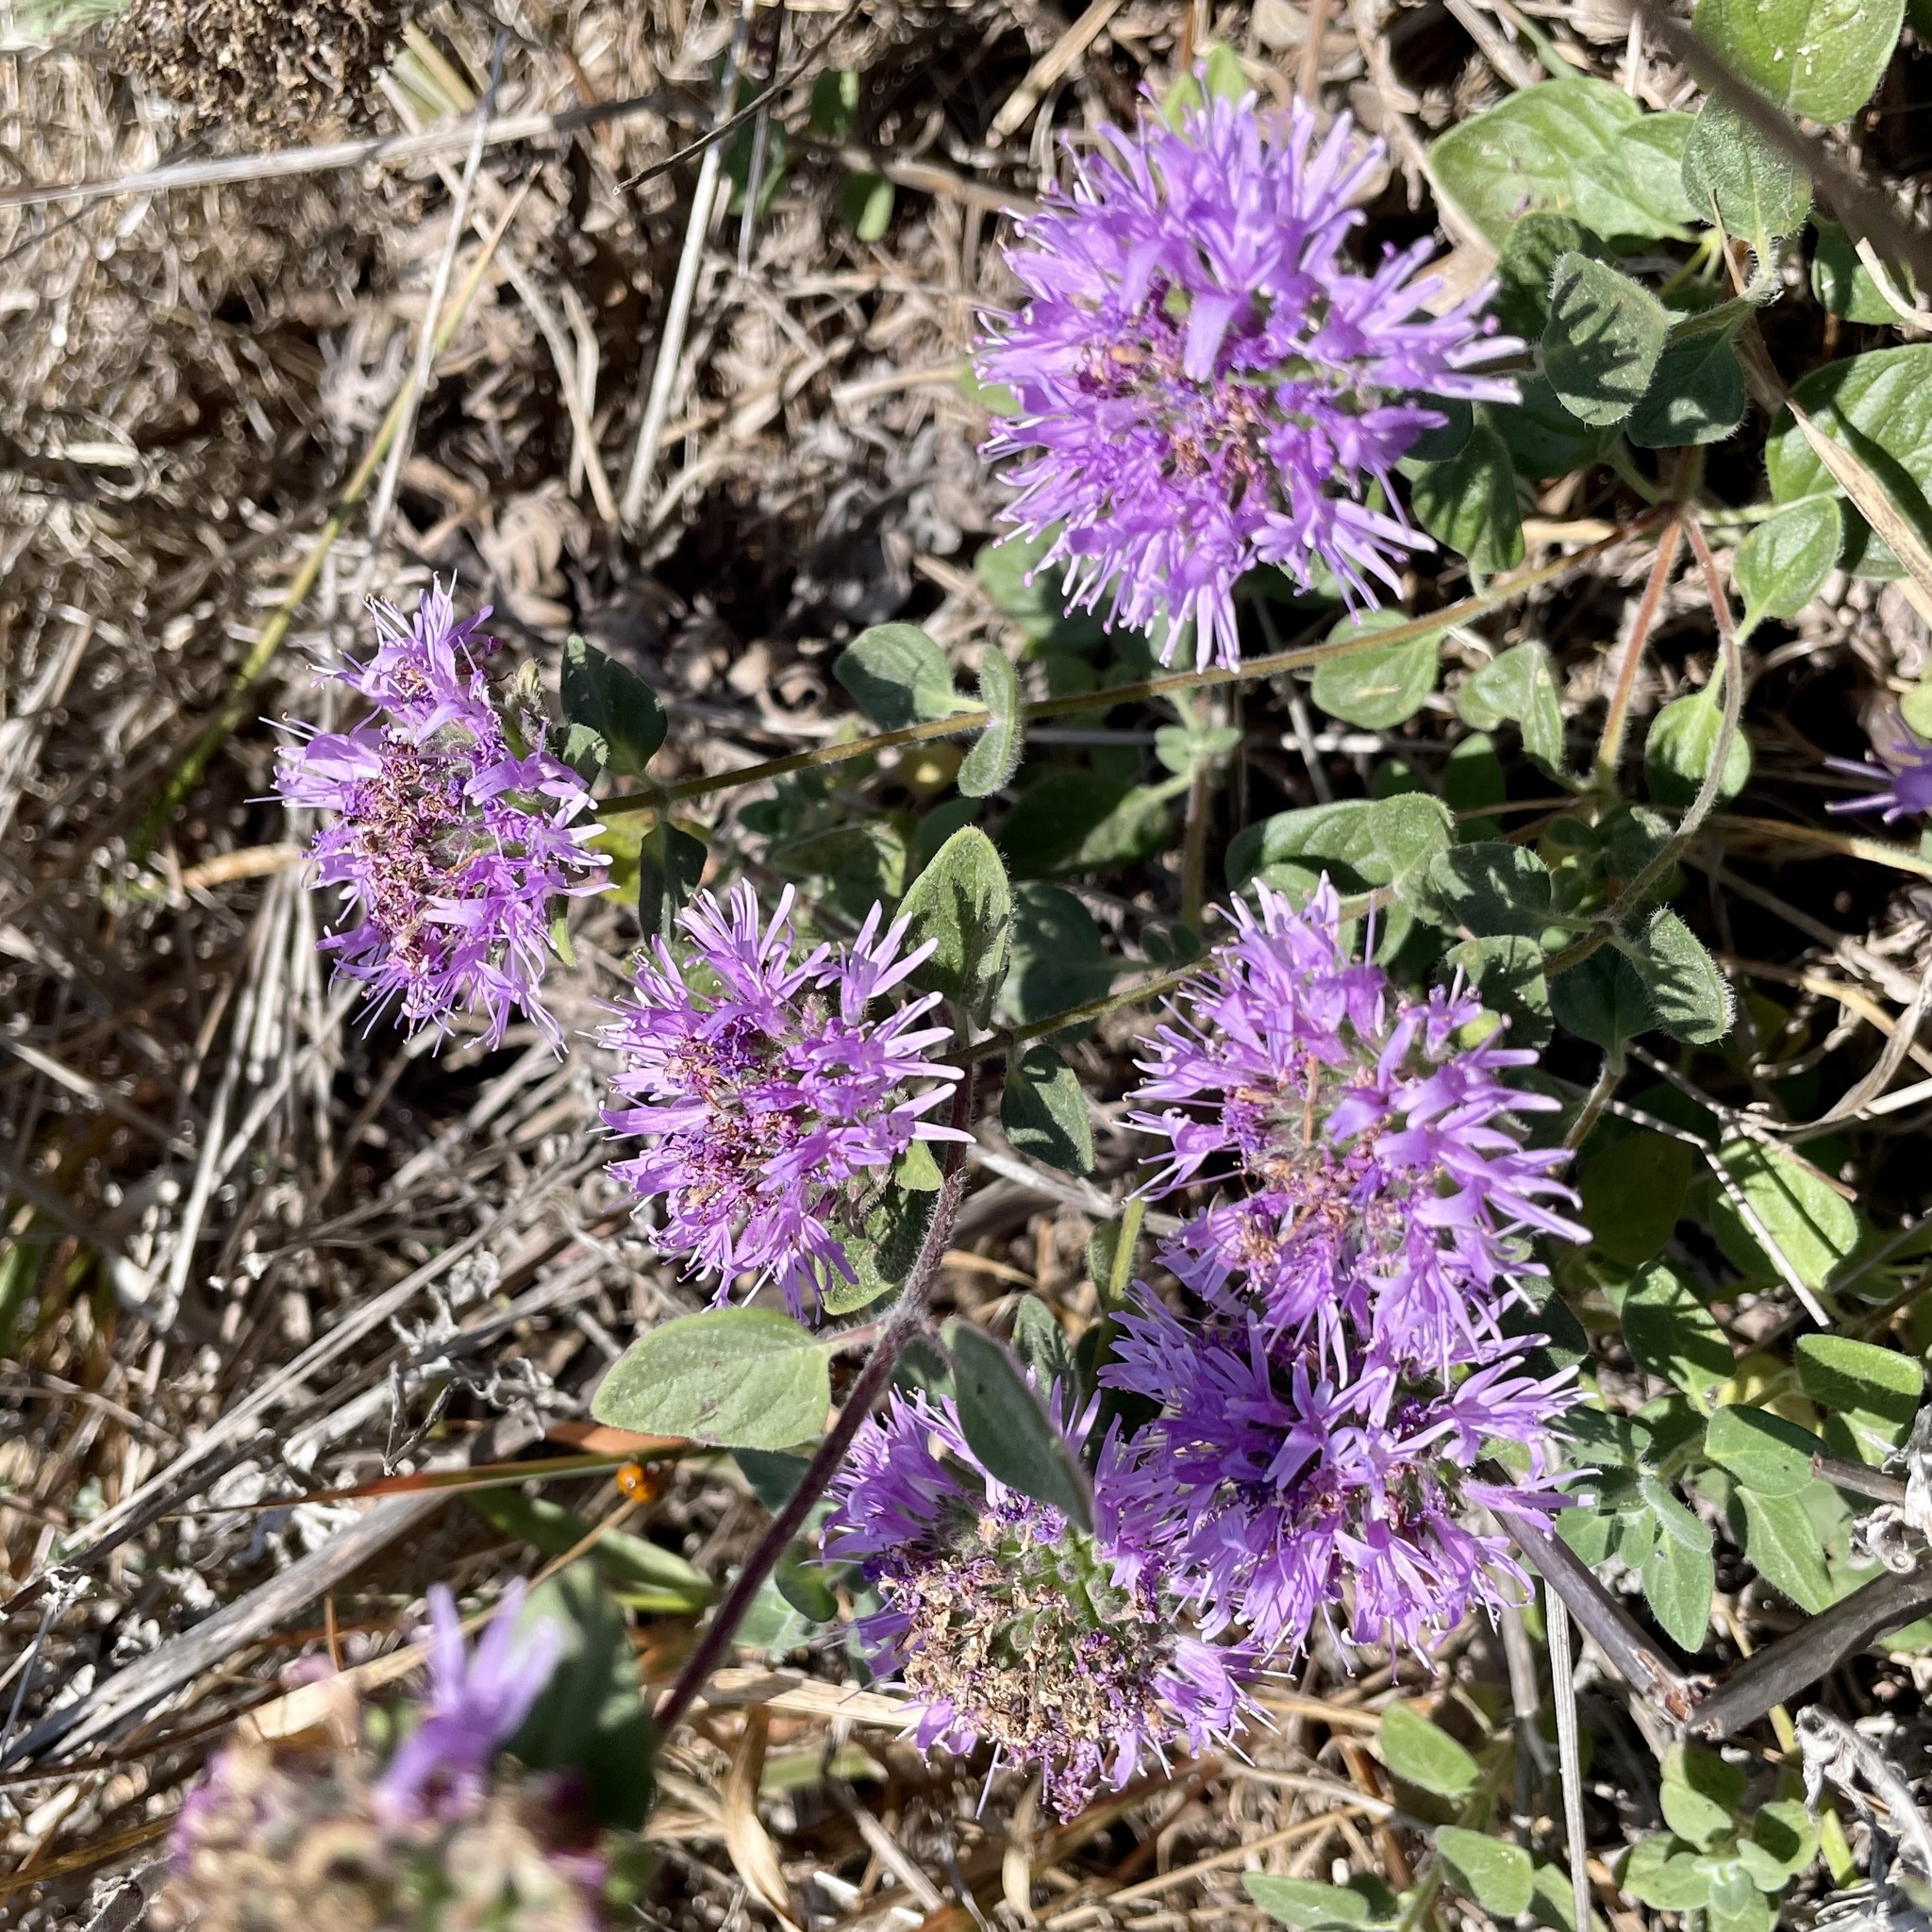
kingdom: Plantae
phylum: Tracheophyta
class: Magnoliopsida
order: Lamiales
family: Lamiaceae
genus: Monardella
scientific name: Monardella odoratissima
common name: Pacific monardella
